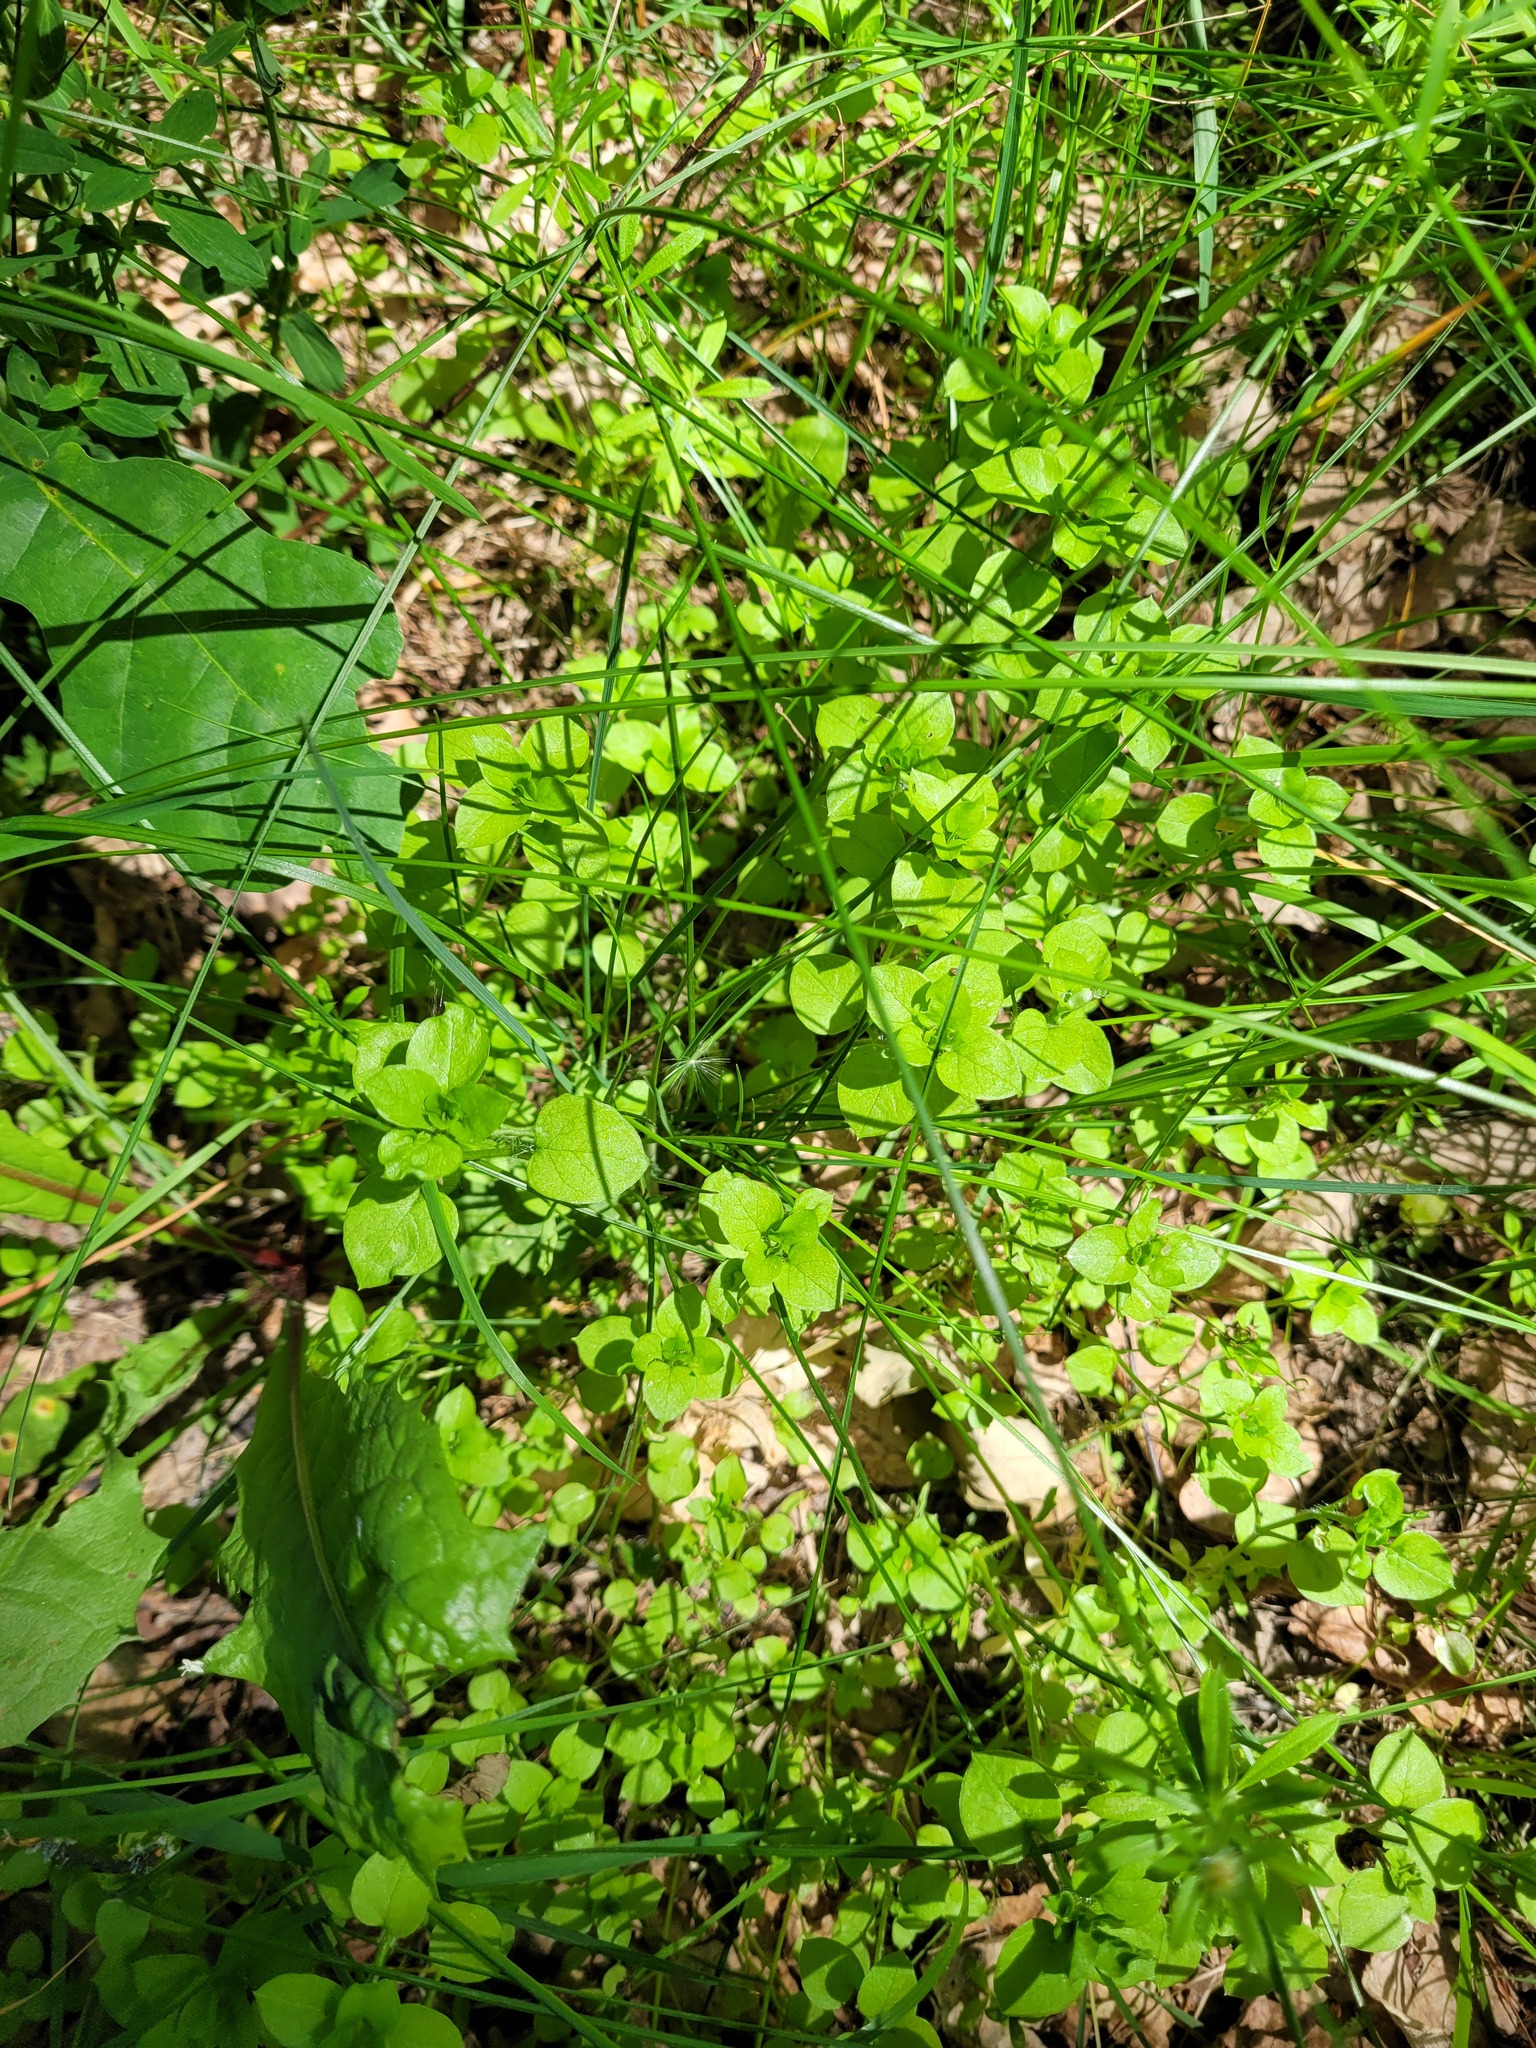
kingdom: Plantae
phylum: Tracheophyta
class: Magnoliopsida
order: Caryophyllales
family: Caryophyllaceae
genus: Stellaria
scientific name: Stellaria media
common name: Common chickweed
